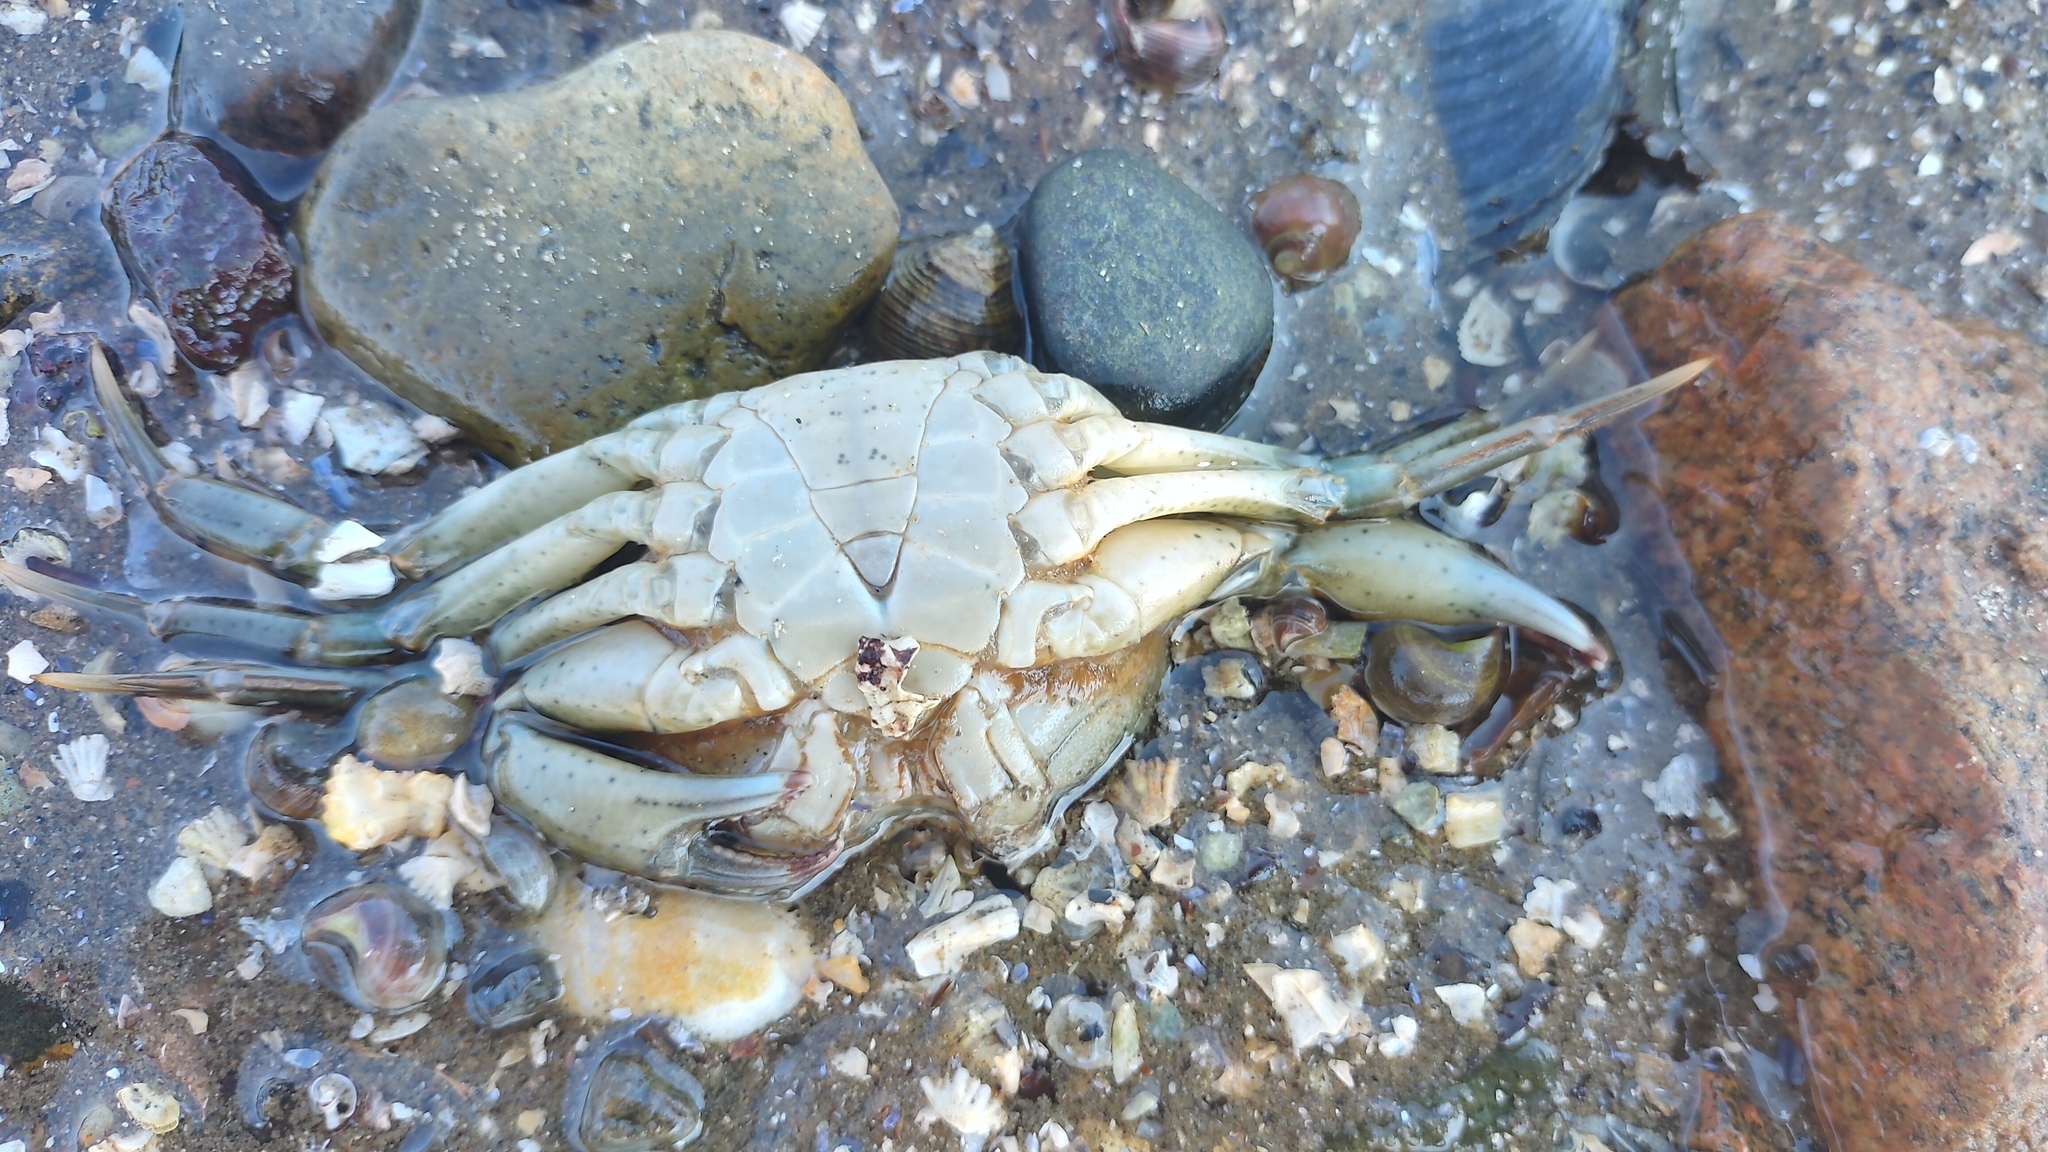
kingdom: Animalia
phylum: Arthropoda
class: Malacostraca
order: Decapoda
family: Carcinidae
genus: Carcinus
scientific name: Carcinus maenas
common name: European green crab
